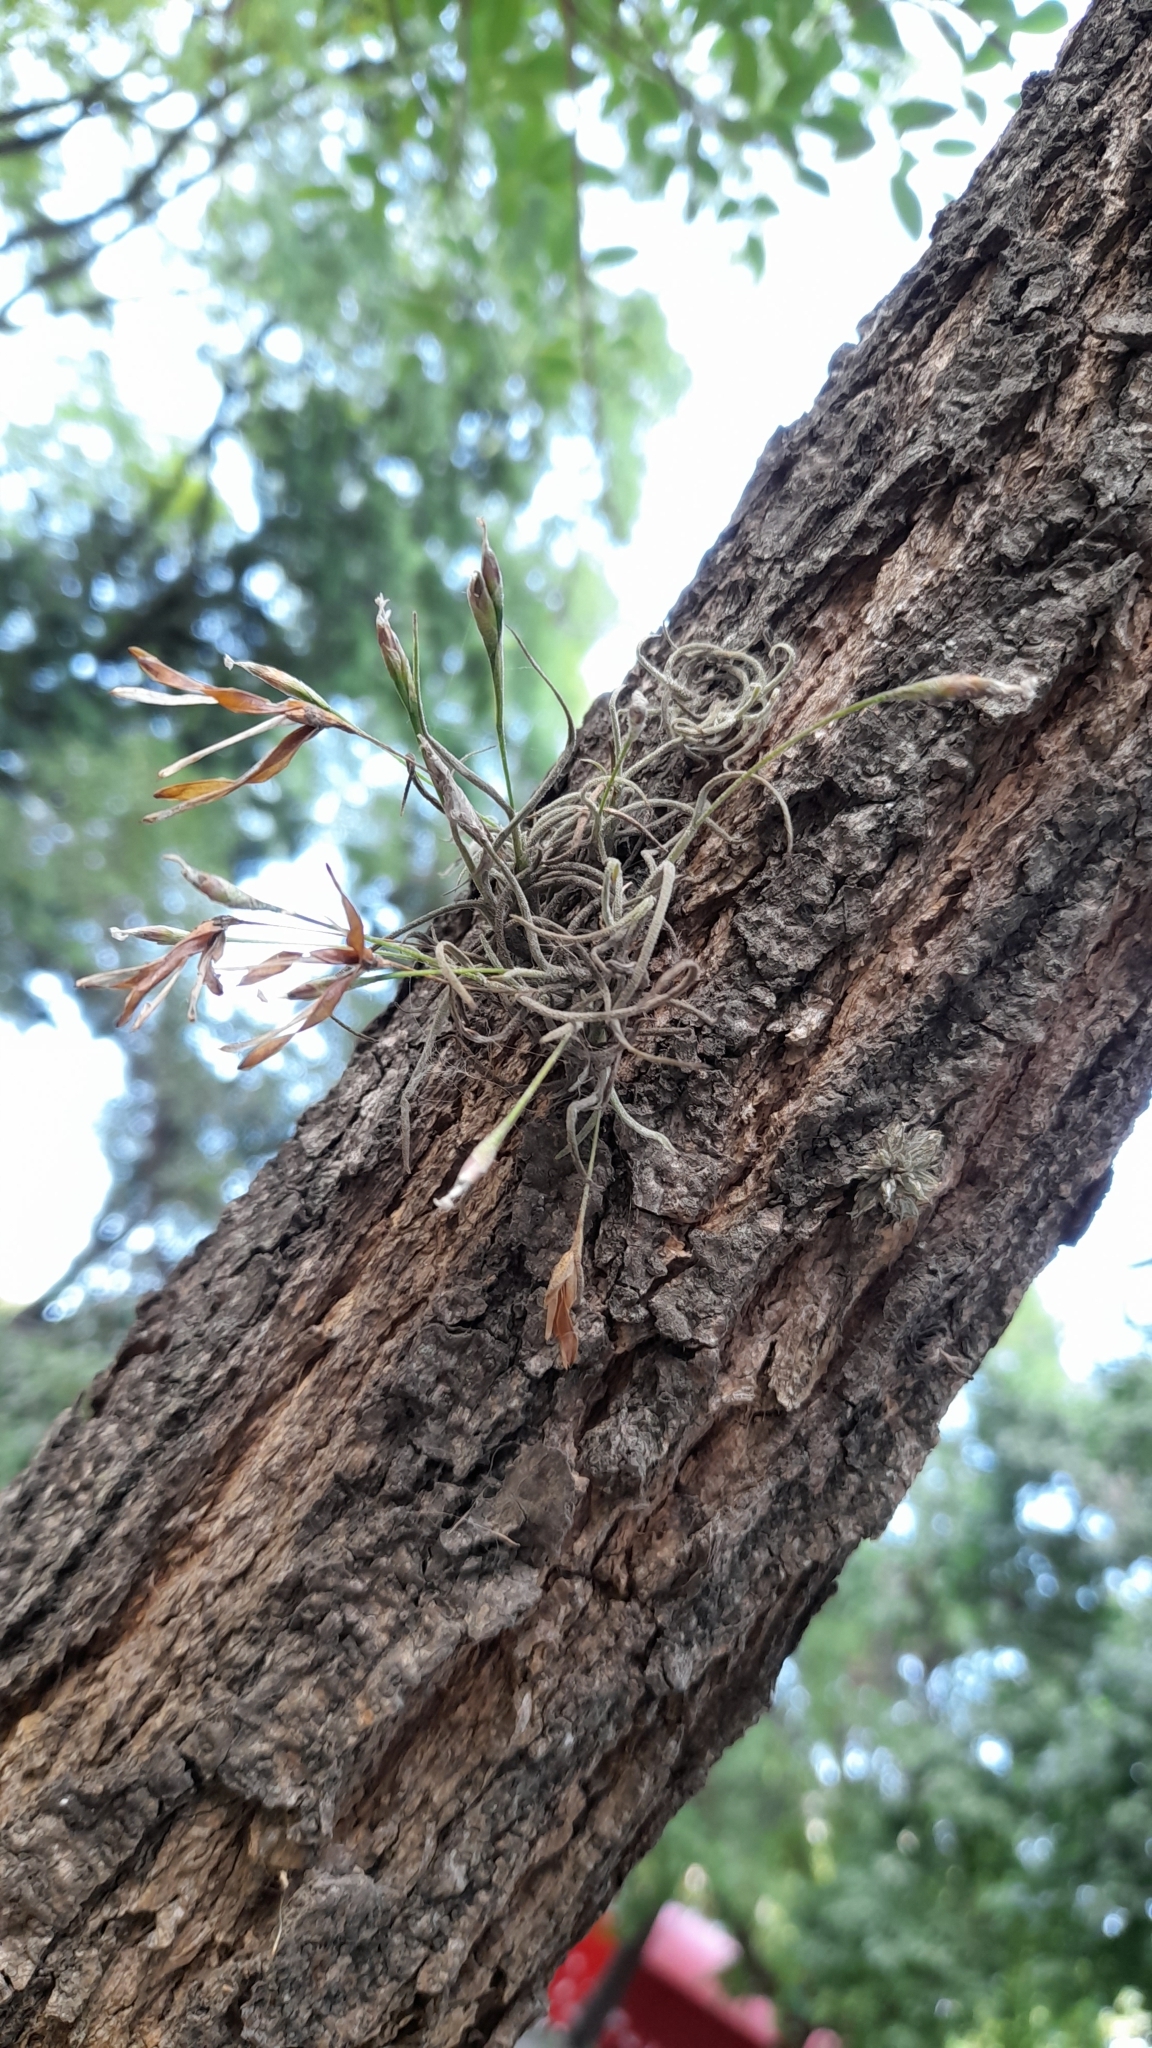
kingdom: Plantae
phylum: Tracheophyta
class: Liliopsida
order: Poales
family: Bromeliaceae
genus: Tillandsia
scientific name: Tillandsia recurvata
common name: Small ballmoss
